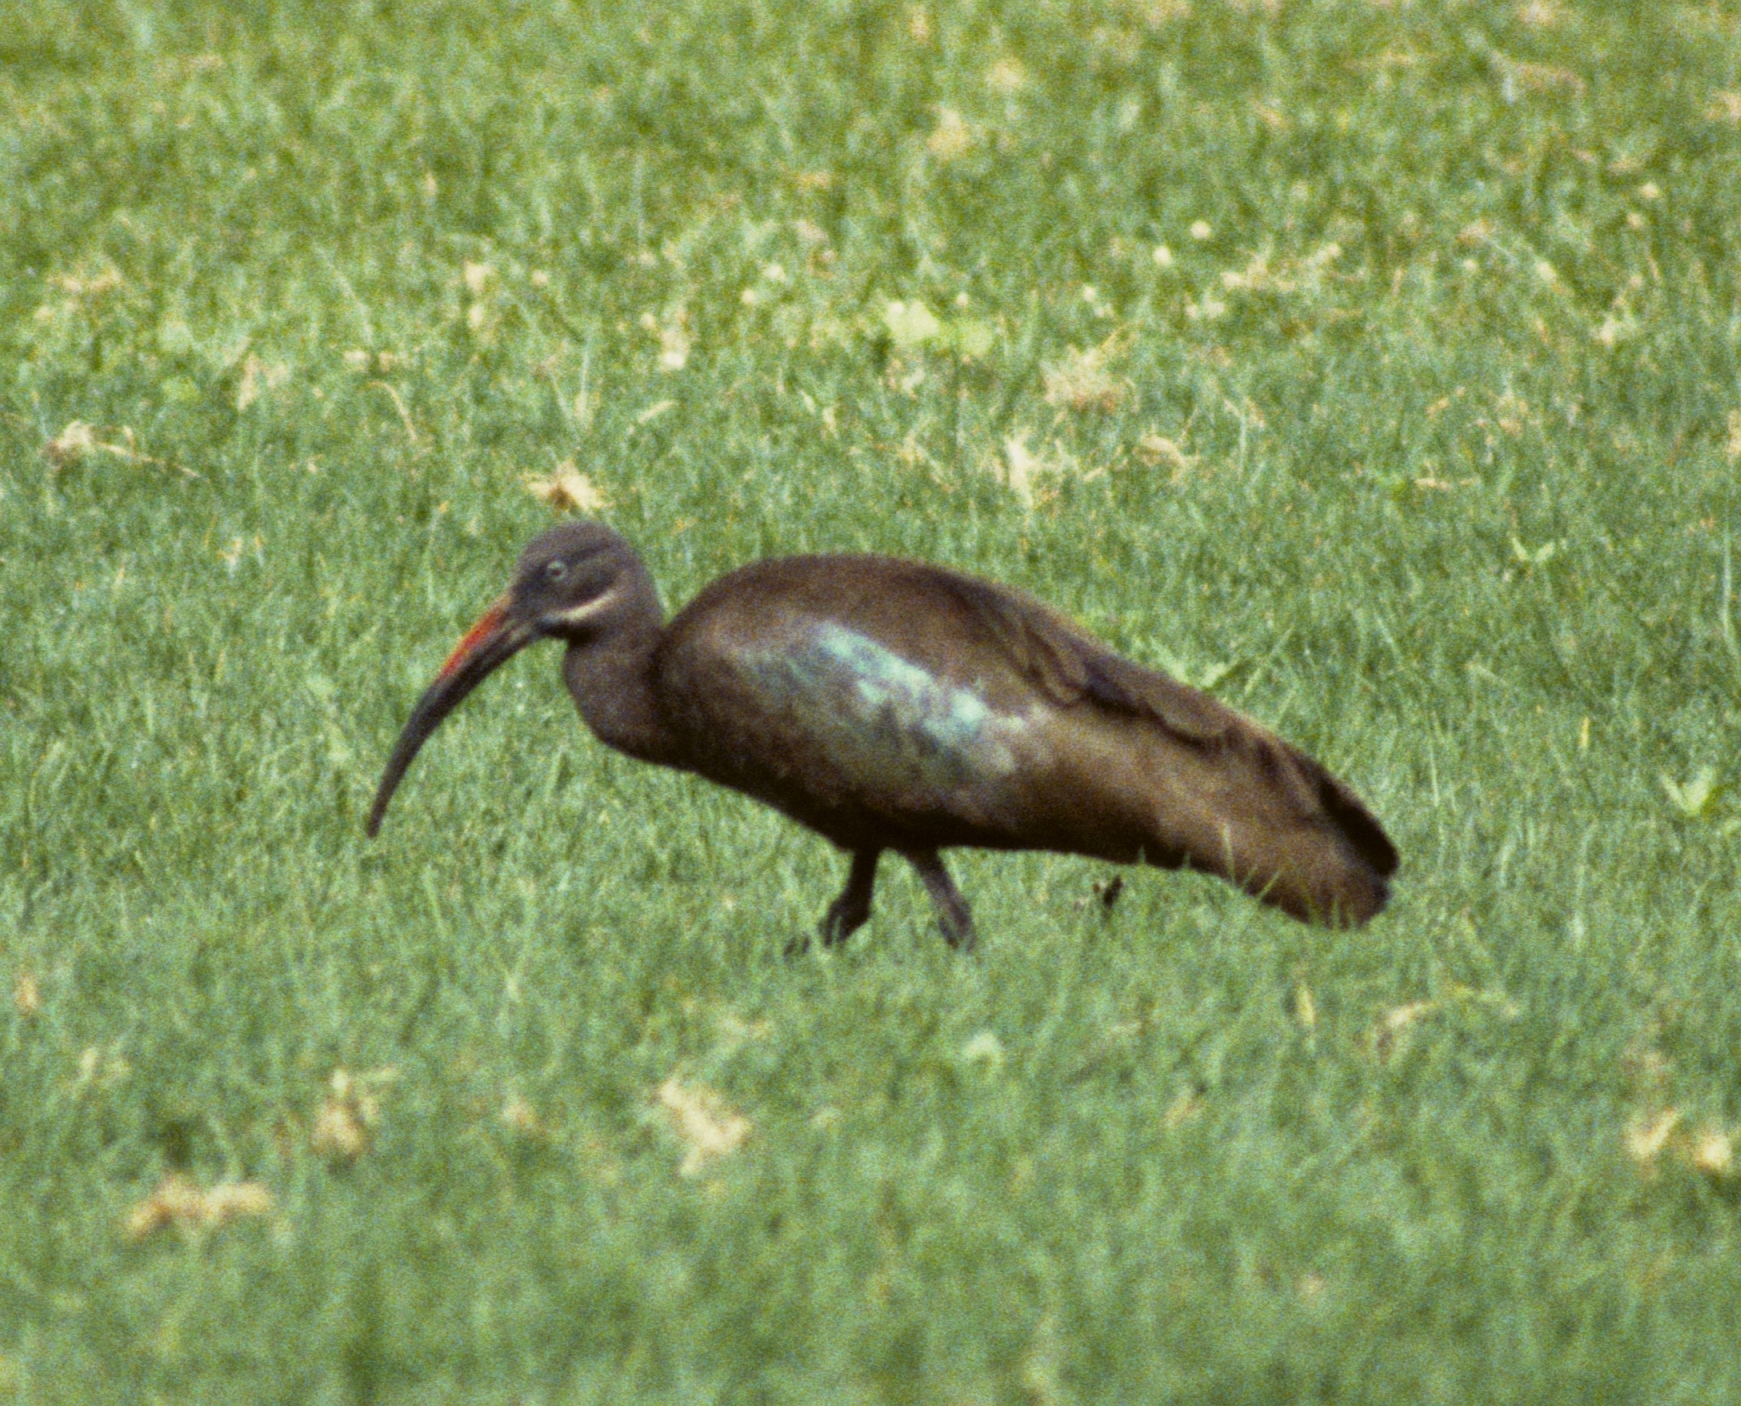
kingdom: Animalia
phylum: Chordata
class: Aves
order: Pelecaniformes
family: Threskiornithidae
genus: Bostrychia
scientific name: Bostrychia hagedash
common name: Hadada ibis
